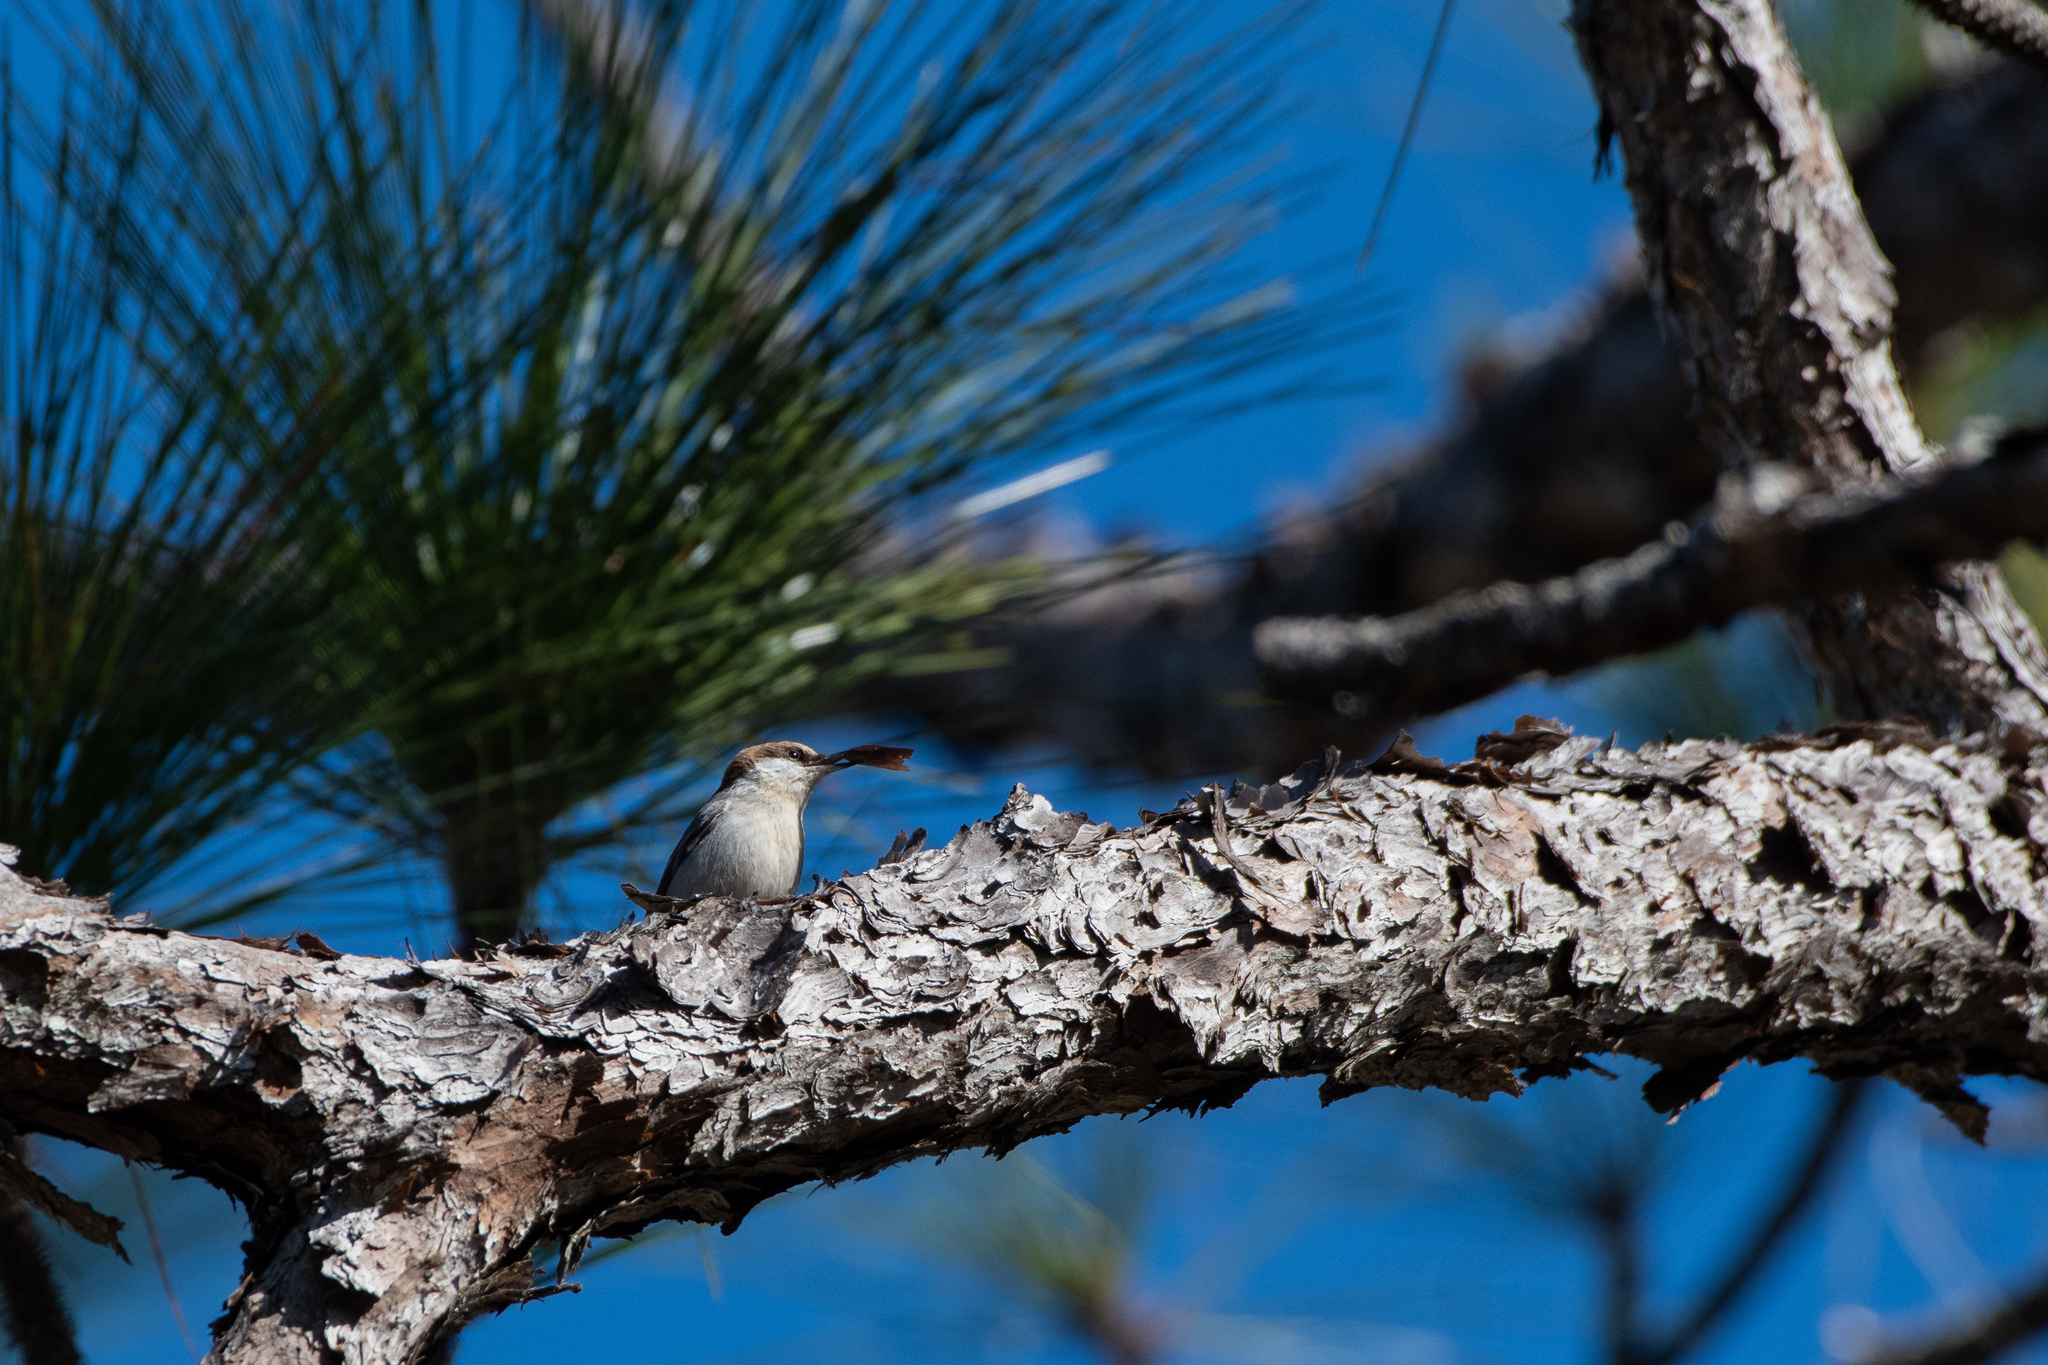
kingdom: Animalia
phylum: Chordata
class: Aves
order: Passeriformes
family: Sittidae
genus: Sitta
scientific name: Sitta pusilla
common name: Brown-headed nuthatch
